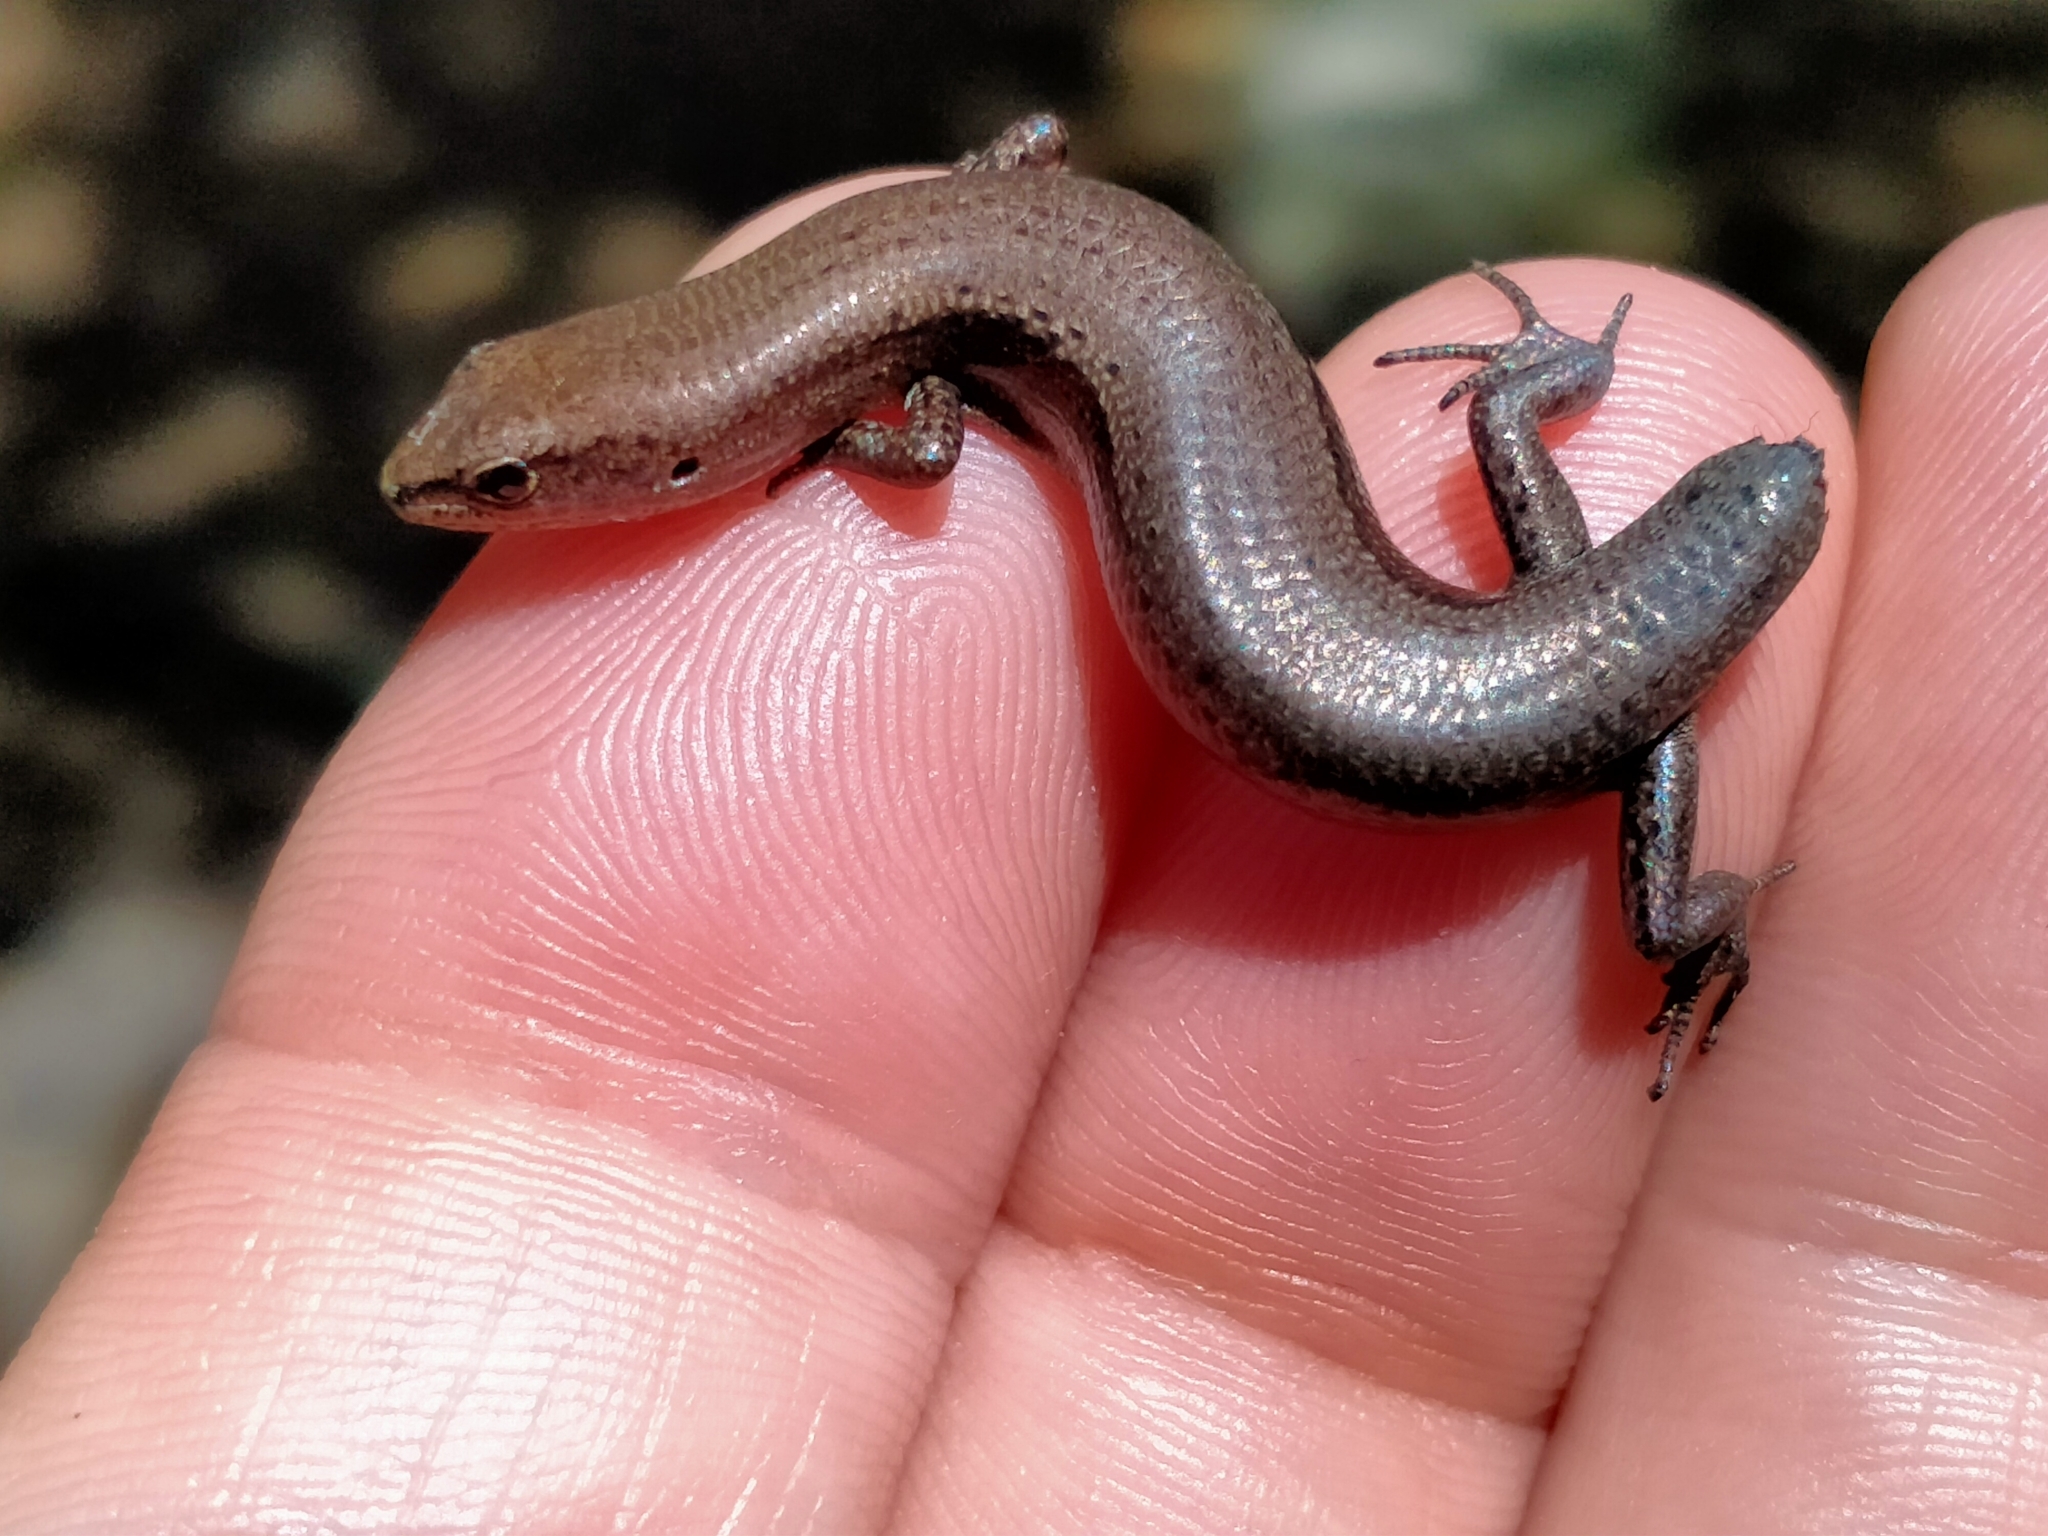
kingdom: Animalia
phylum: Chordata
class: Squamata
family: Scincidae
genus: Lampropholis
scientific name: Lampropholis delicata
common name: Plague skink
